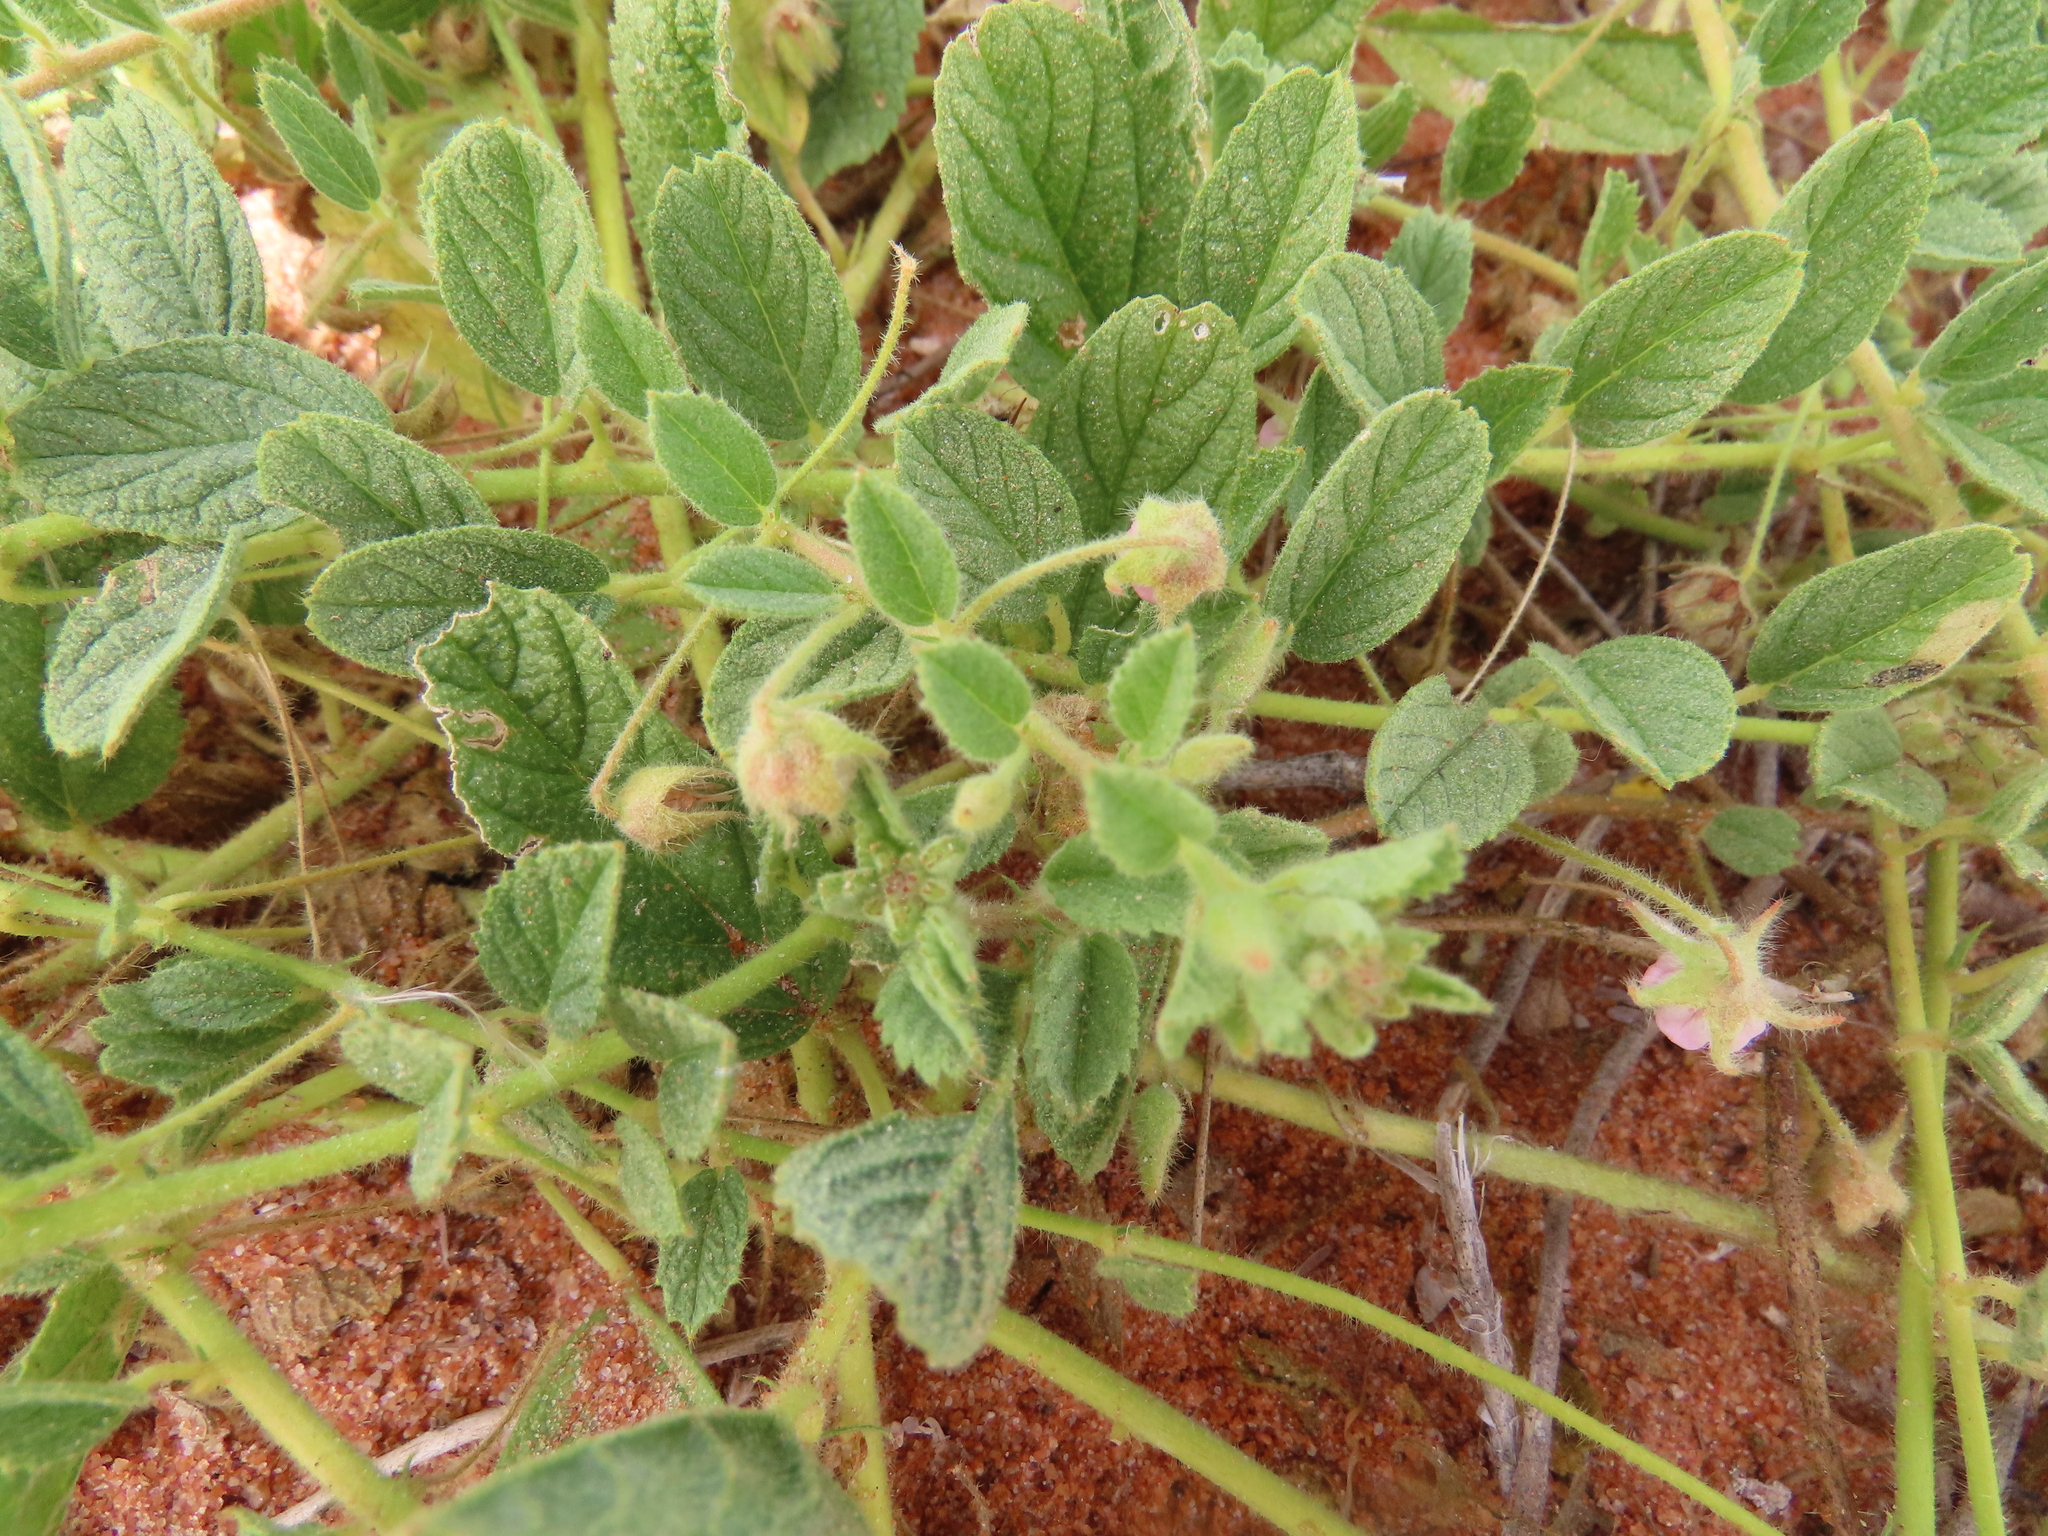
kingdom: Plantae
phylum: Tracheophyta
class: Magnoliopsida
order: Malvales
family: Malvaceae
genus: Hermannia
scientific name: Hermannia tomentosa
